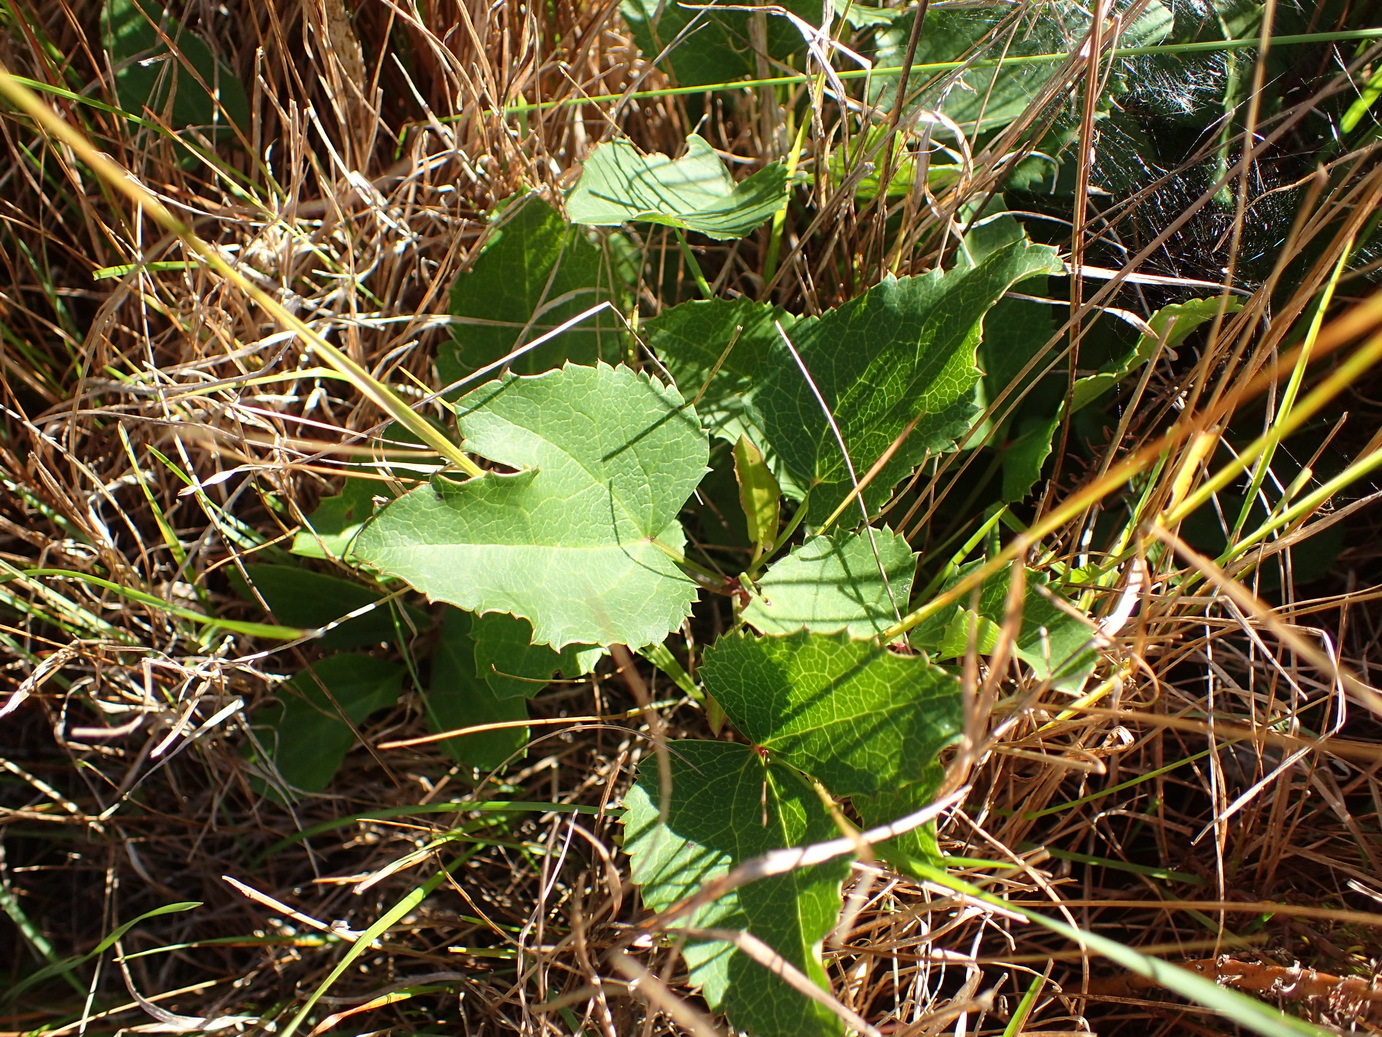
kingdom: Plantae
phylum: Tracheophyta
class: Magnoliopsida
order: Ranunculales
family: Ranunculaceae
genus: Knowltonia
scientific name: Knowltonia vesicatoria
